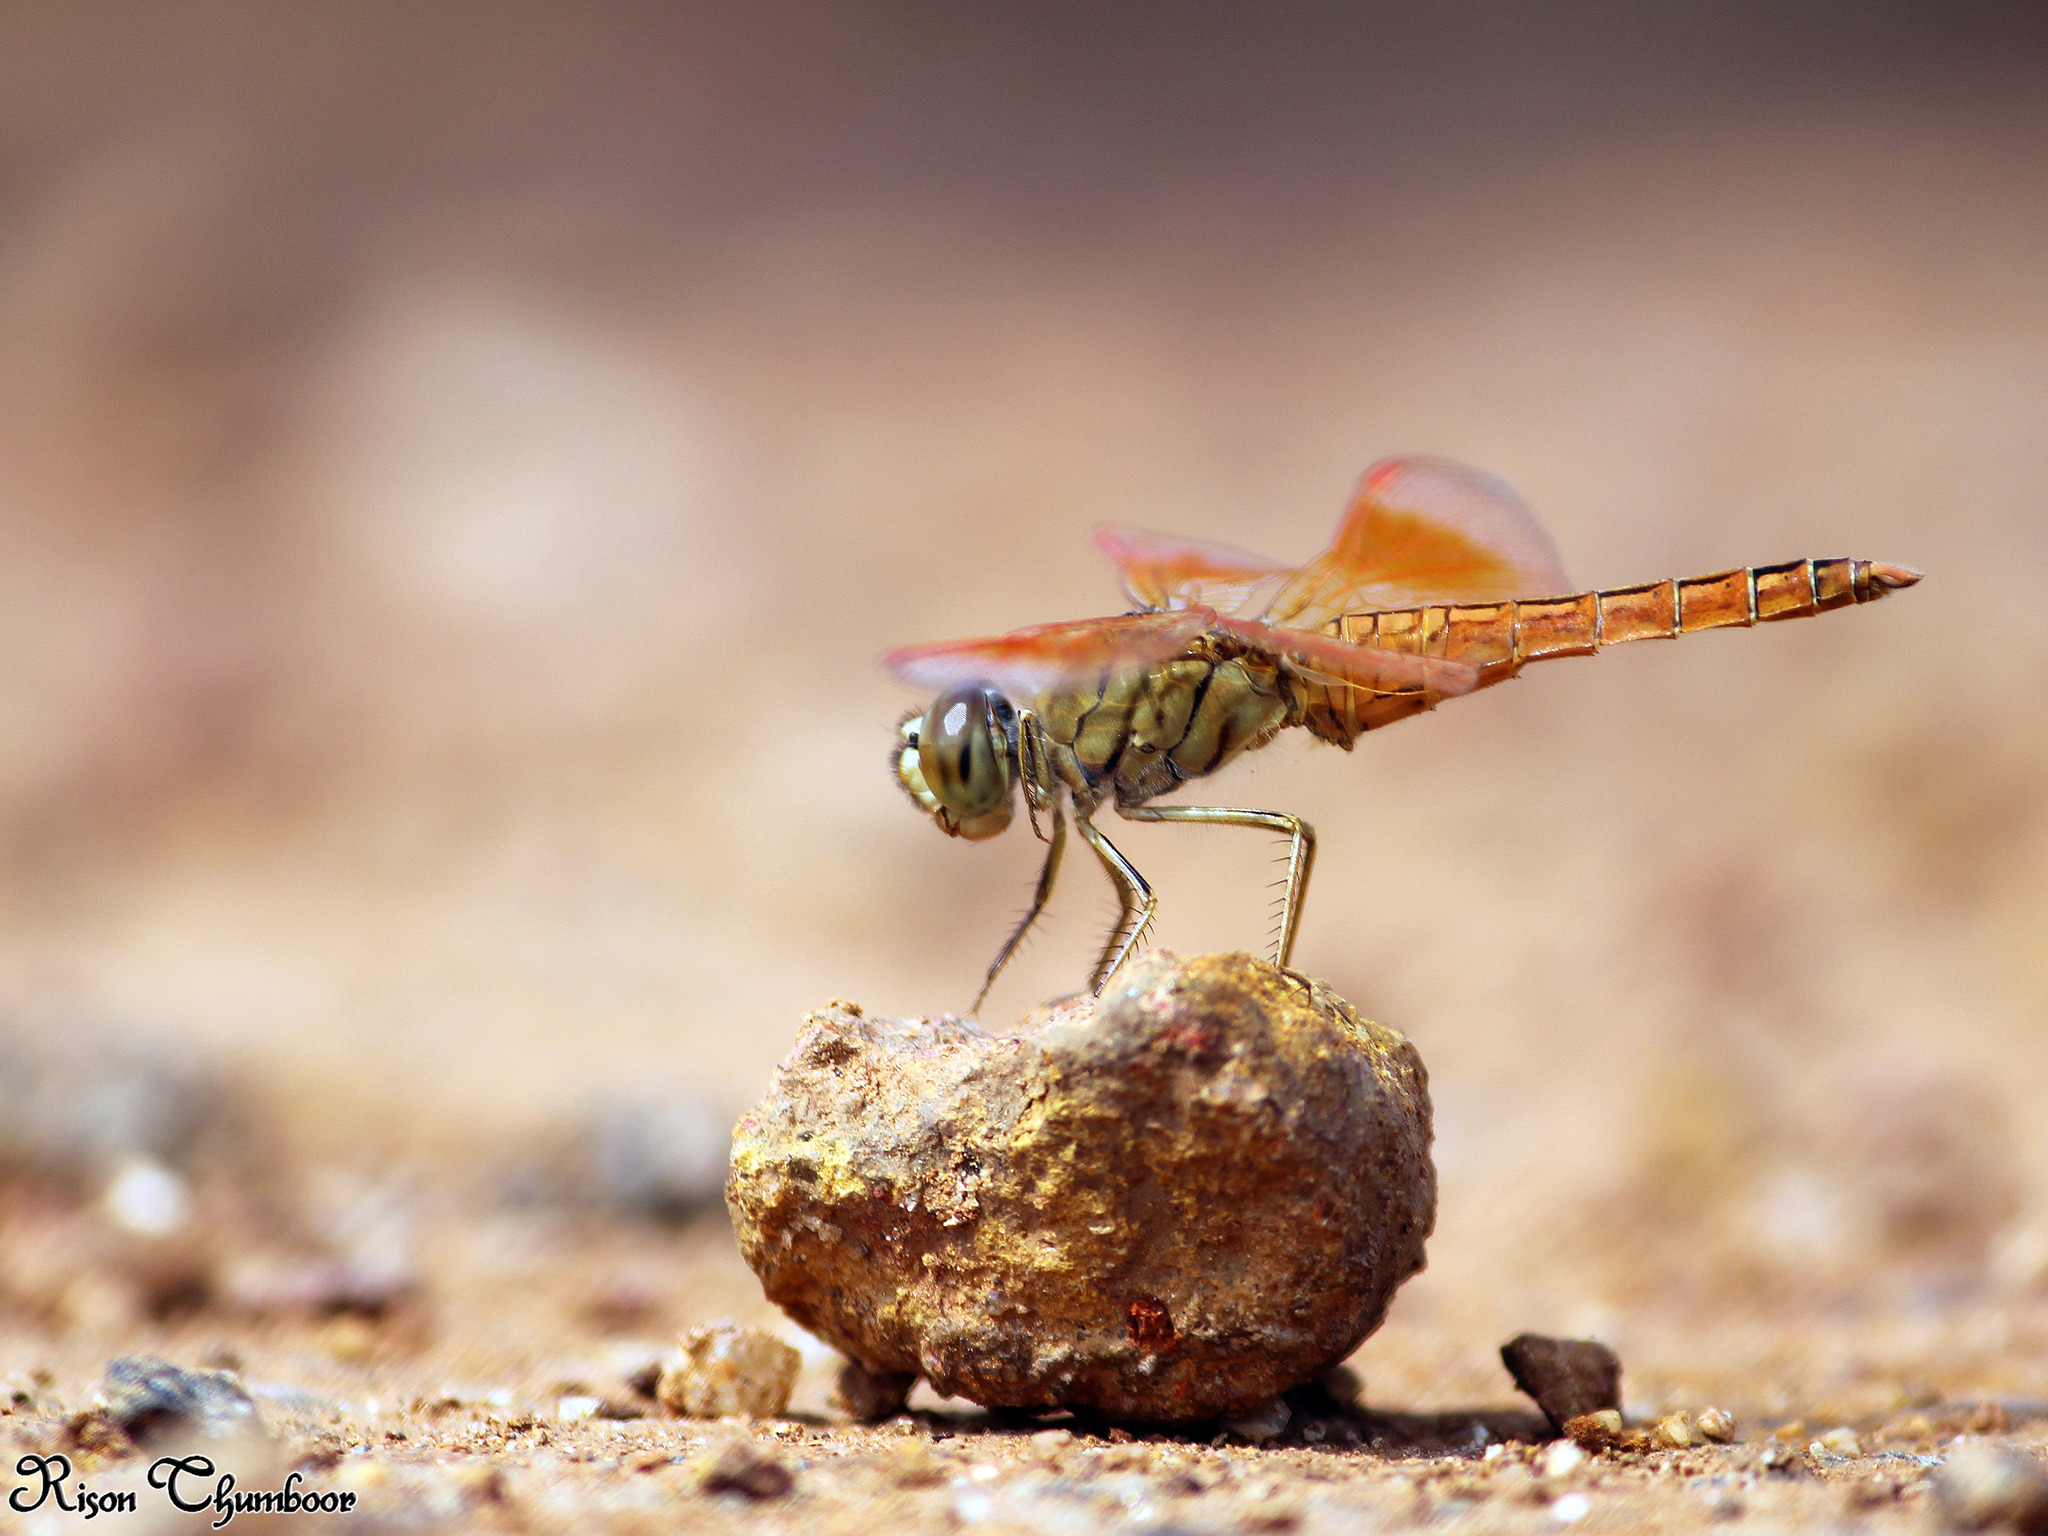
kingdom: Animalia
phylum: Arthropoda
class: Insecta
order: Odonata
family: Libellulidae
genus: Brachythemis
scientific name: Brachythemis contaminata
